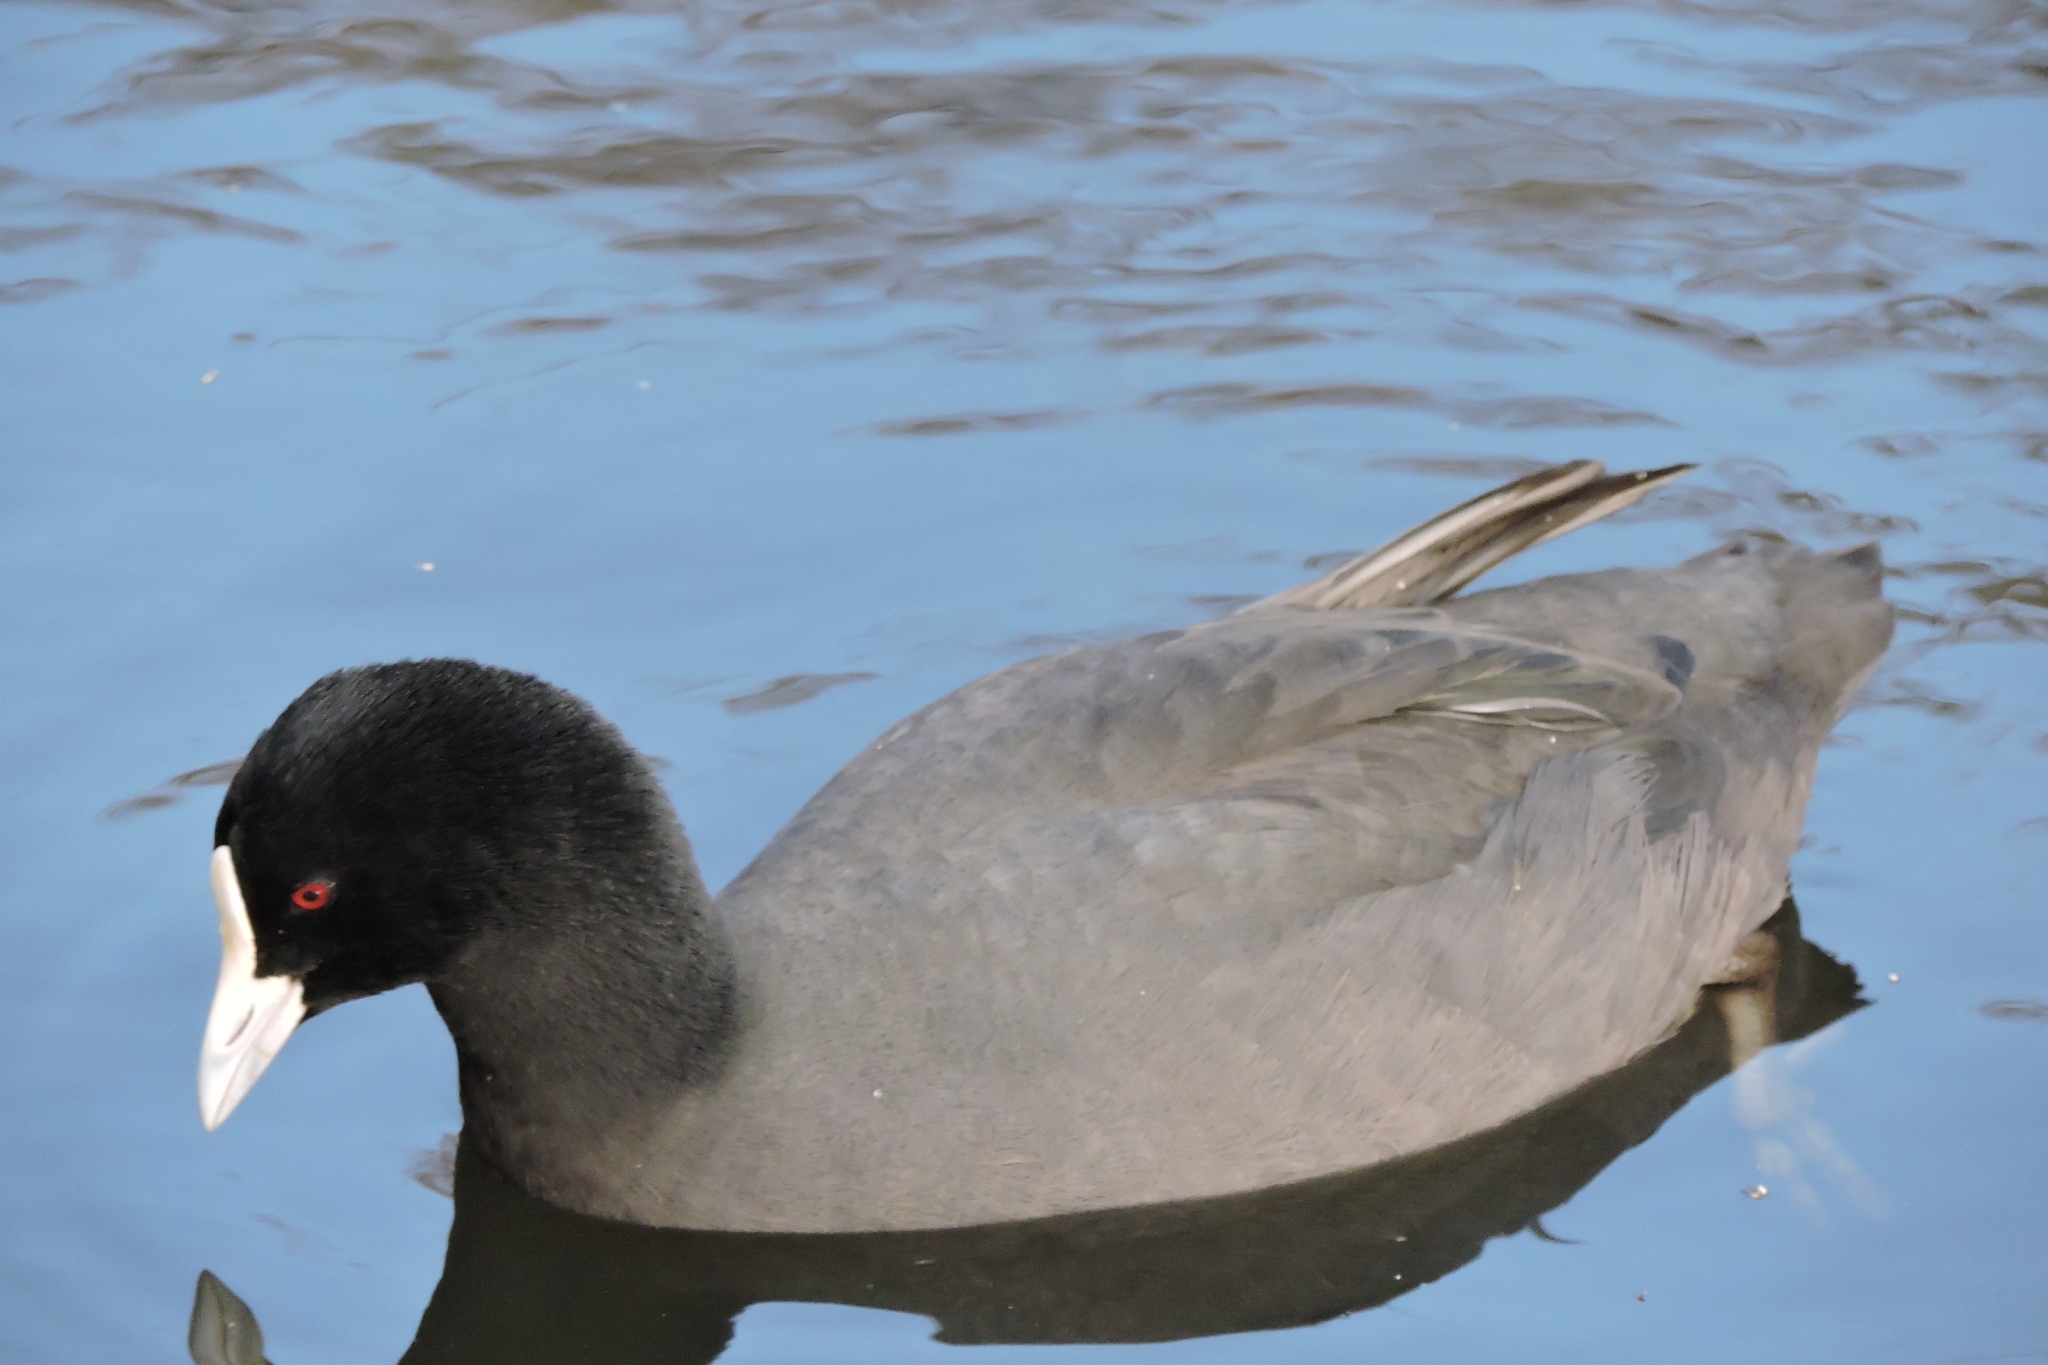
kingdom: Animalia
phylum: Chordata
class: Aves
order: Gruiformes
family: Rallidae
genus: Fulica
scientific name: Fulica atra
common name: Eurasian coot
